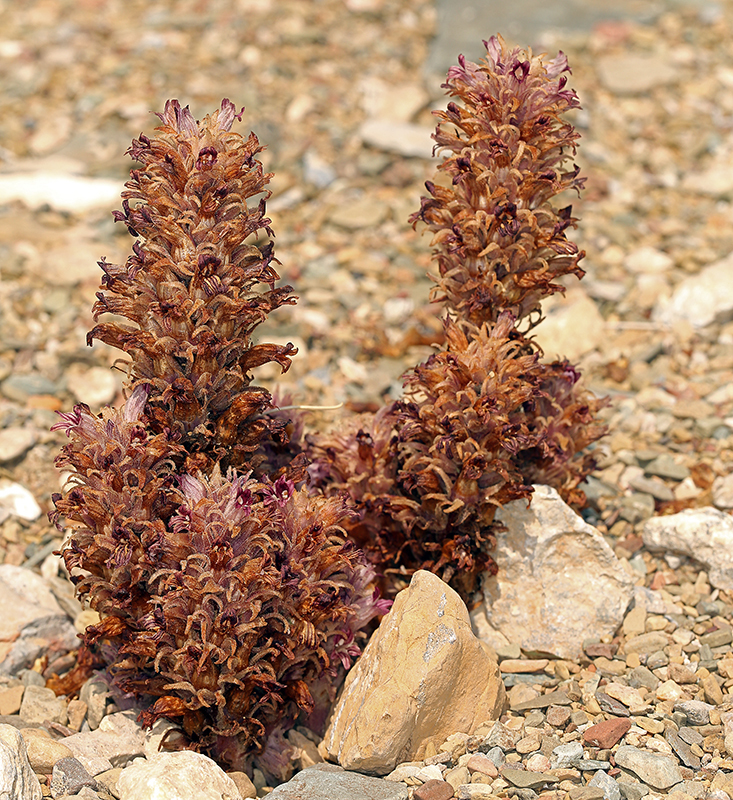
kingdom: Plantae
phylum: Tracheophyta
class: Magnoliopsida
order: Lamiales
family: Orobanchaceae
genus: Aphyllon
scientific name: Aphyllon parishii
